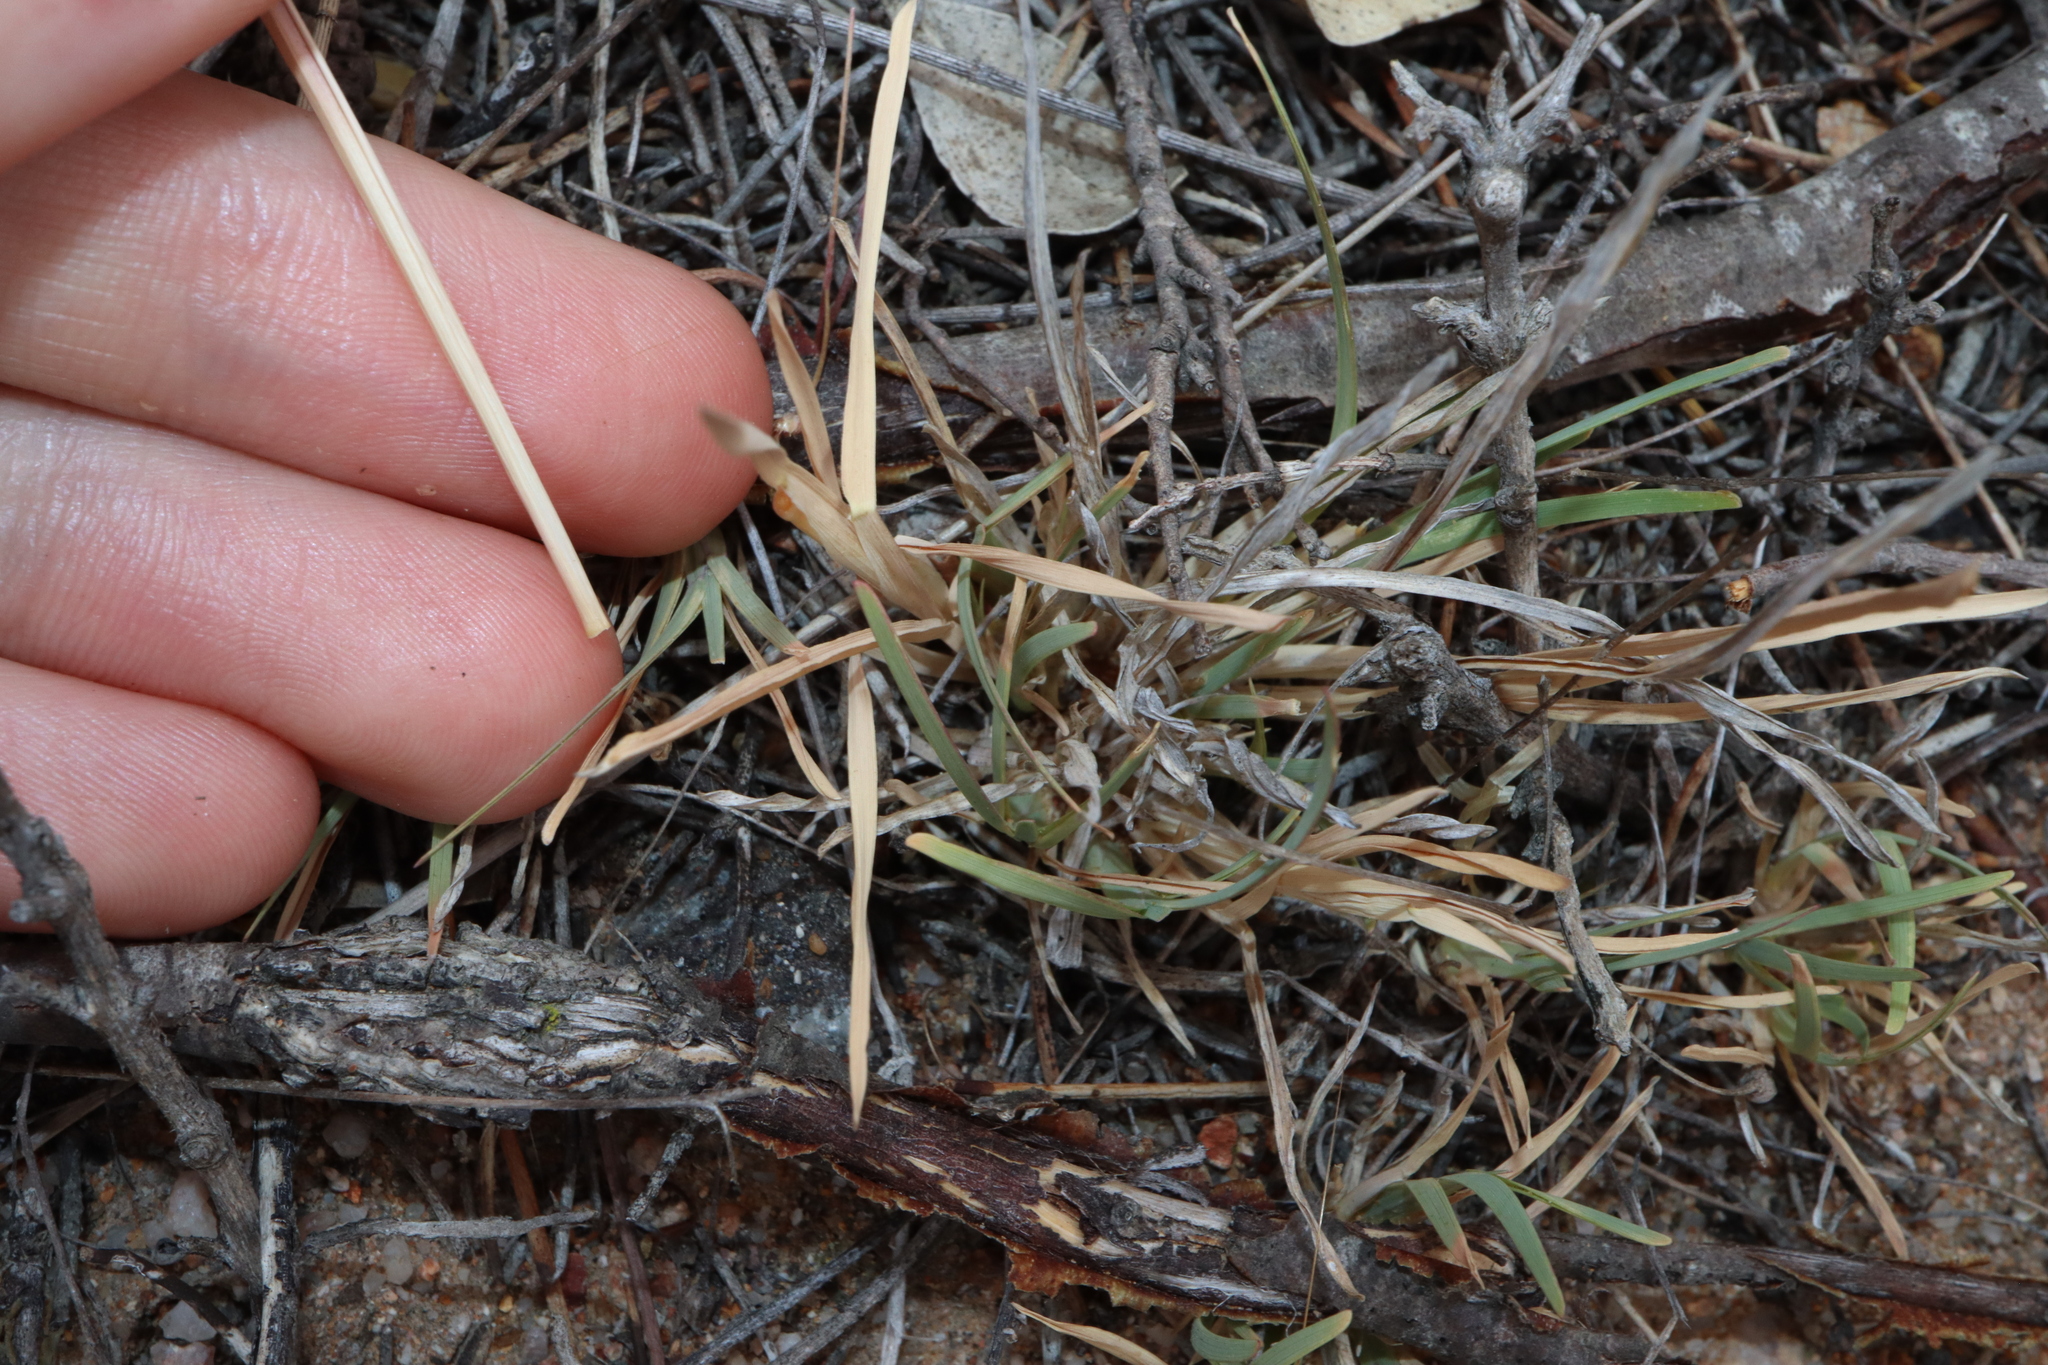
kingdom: Plantae
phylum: Tracheophyta
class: Liliopsida
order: Poales
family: Poaceae
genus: Chloris
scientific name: Chloris truncata
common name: Windmill-grass
